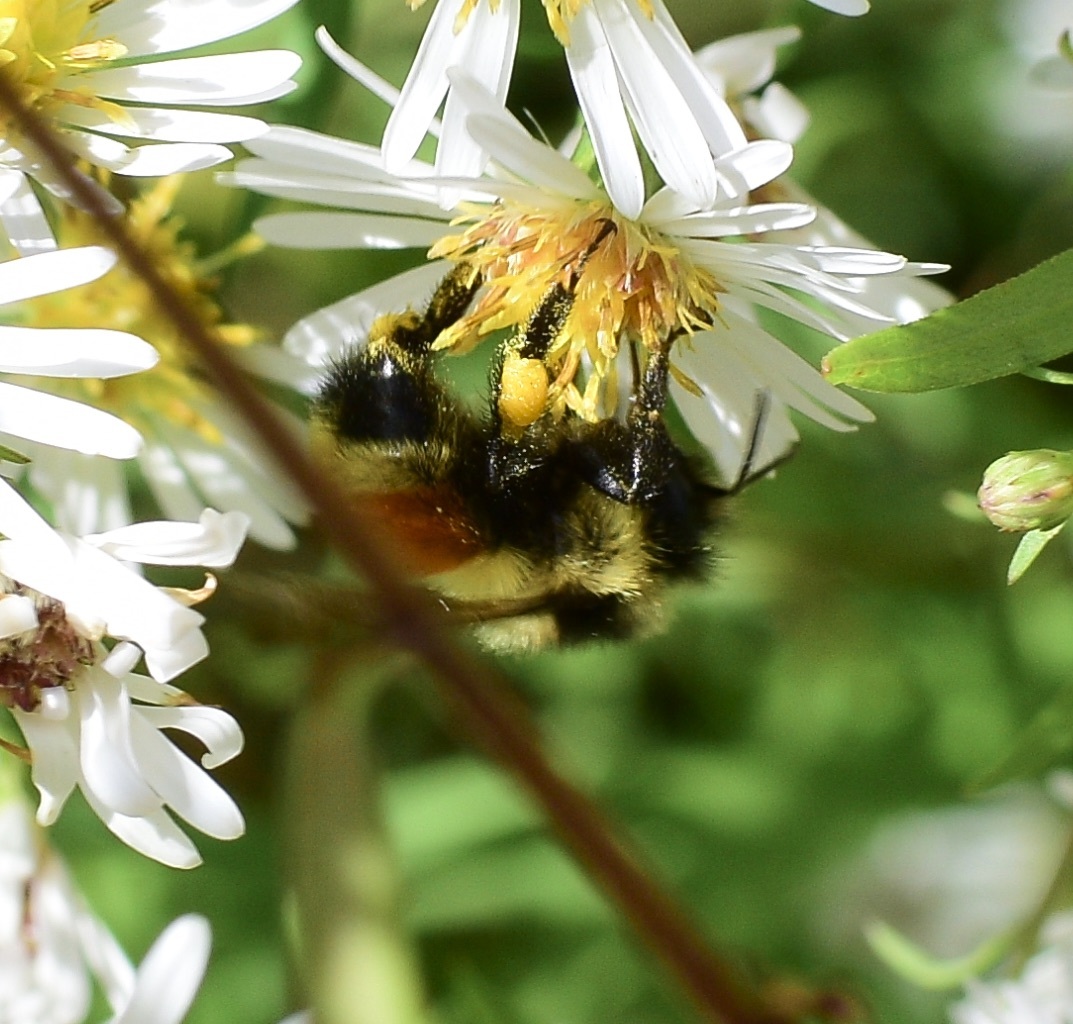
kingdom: Animalia
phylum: Arthropoda
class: Insecta
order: Hymenoptera
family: Apidae
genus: Bombus
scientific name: Bombus ternarius
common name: Tri-colored bumble bee
